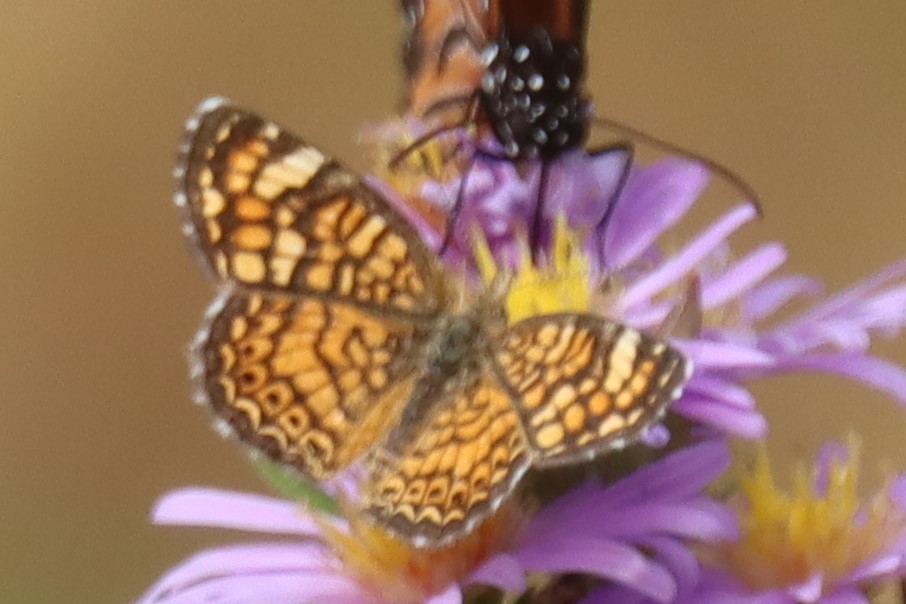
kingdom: Animalia
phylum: Arthropoda
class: Insecta
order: Lepidoptera
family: Nymphalidae
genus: Phyciodes
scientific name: Phyciodes vesta
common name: Vesta crescent
